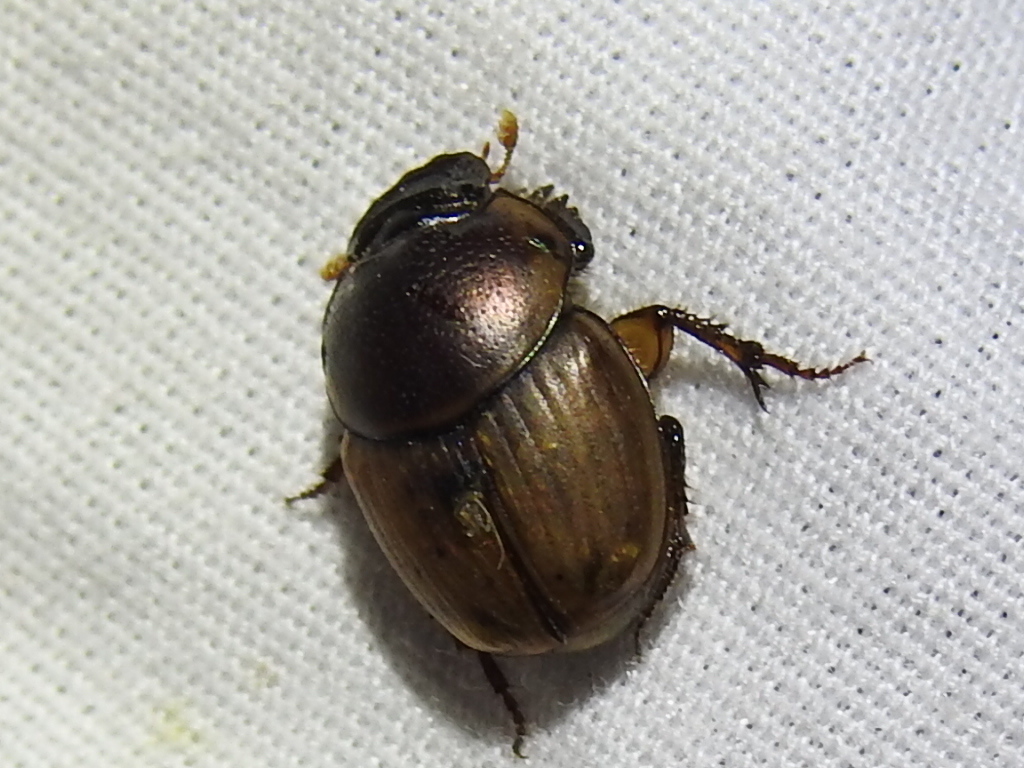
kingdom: Animalia
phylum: Arthropoda
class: Insecta
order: Coleoptera
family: Scarabaeidae
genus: Digitonthophagus
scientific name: Digitonthophagus gazella
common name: Brown dung beetle
